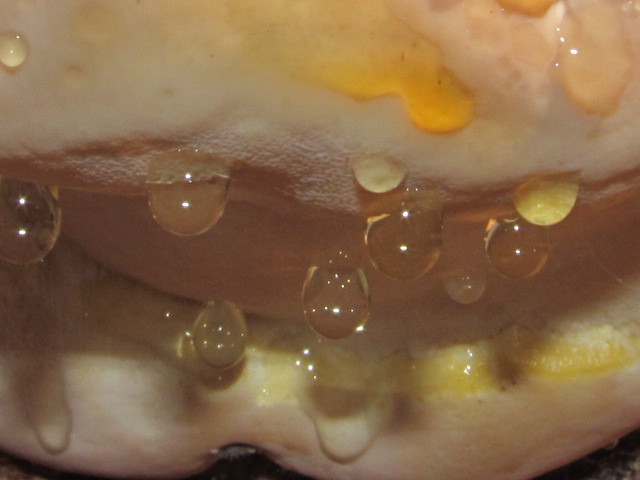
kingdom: Fungi
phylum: Basidiomycota
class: Agaricomycetes
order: Polyporales
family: Fomitopsidaceae
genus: Fomitopsis
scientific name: Fomitopsis mounceae
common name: Northern red belt
